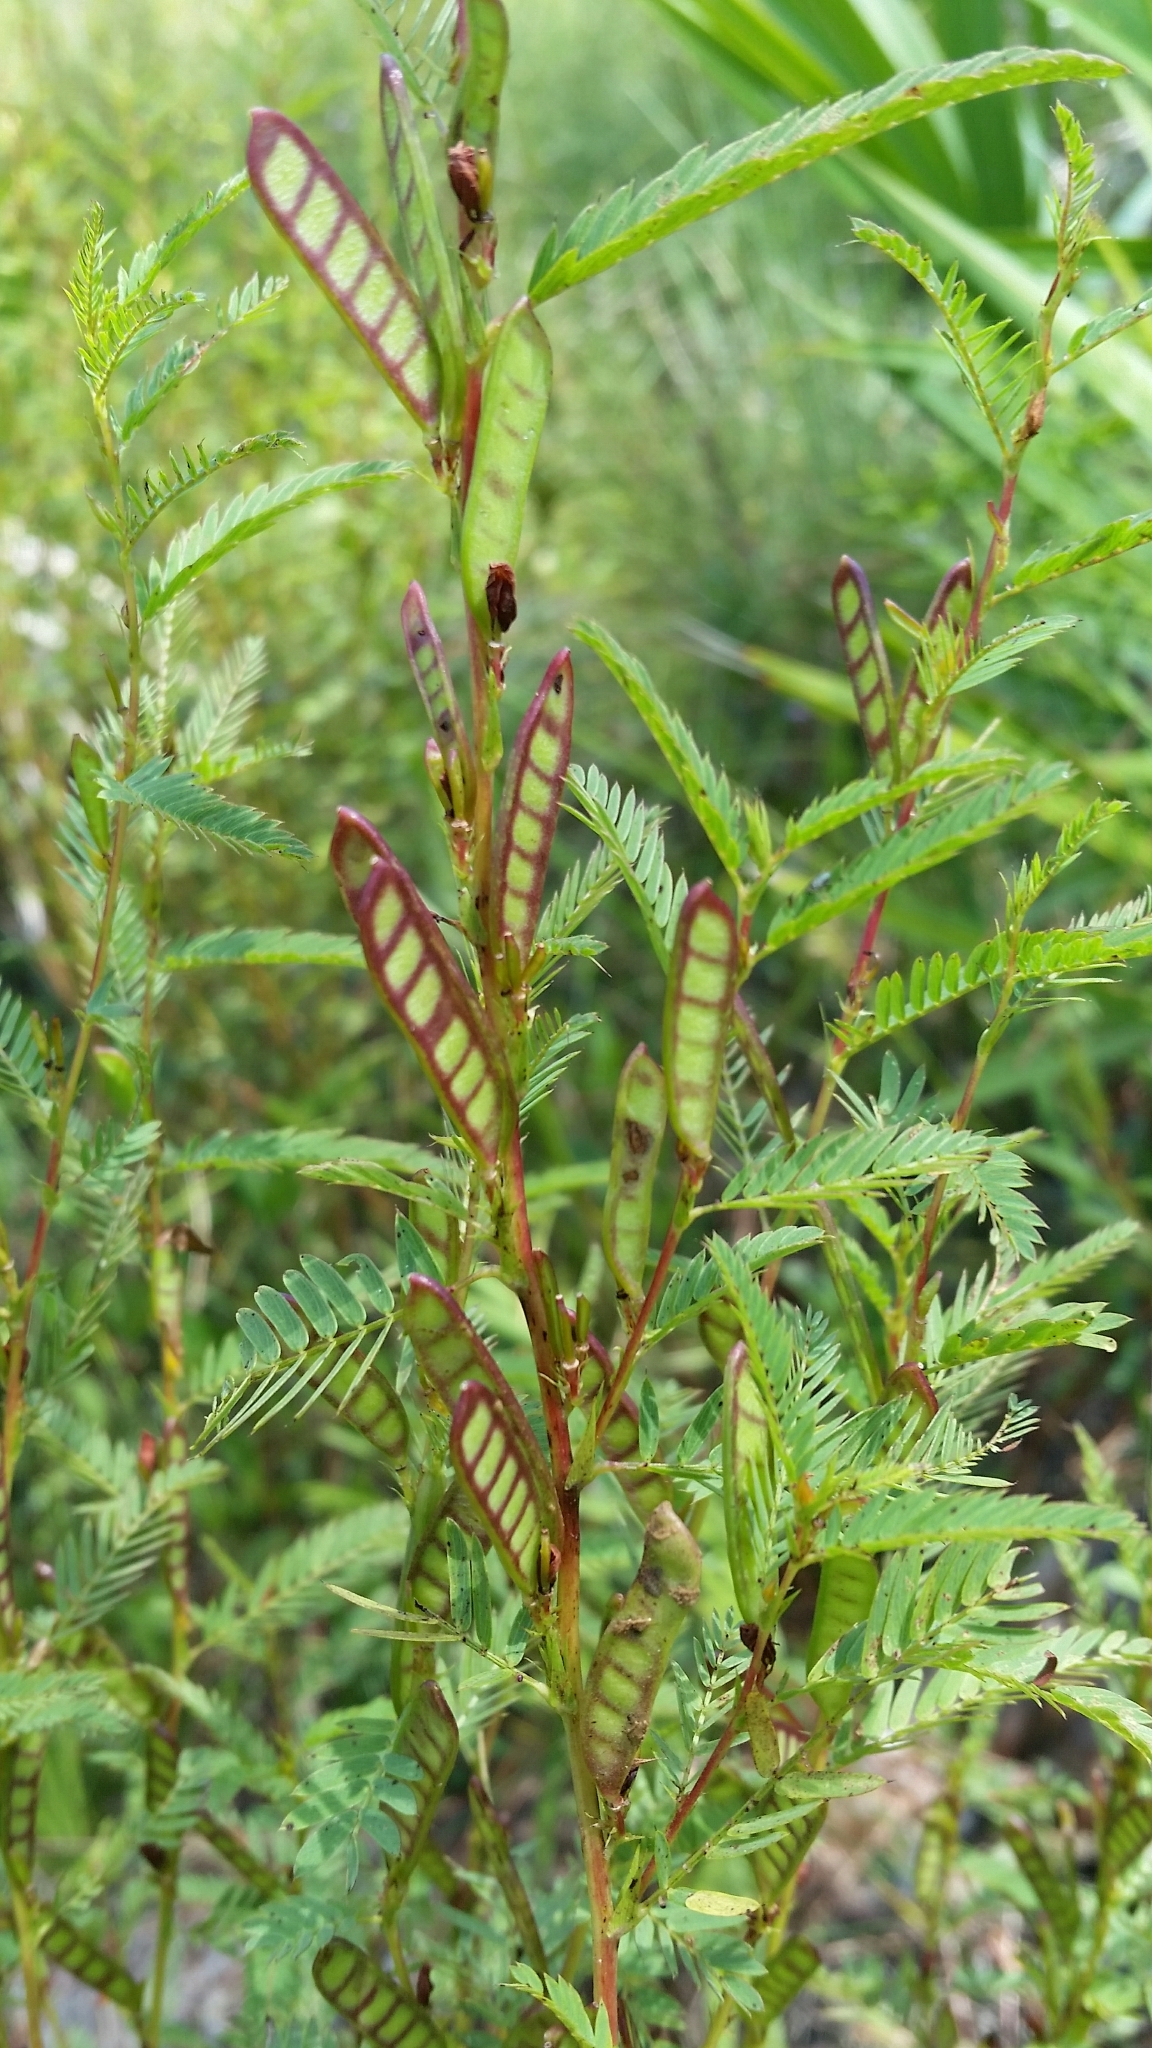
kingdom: Plantae
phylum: Tracheophyta
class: Magnoliopsida
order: Fabales
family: Fabaceae
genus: Chamaecrista
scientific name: Chamaecrista nictitans
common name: Sensitive cassia
